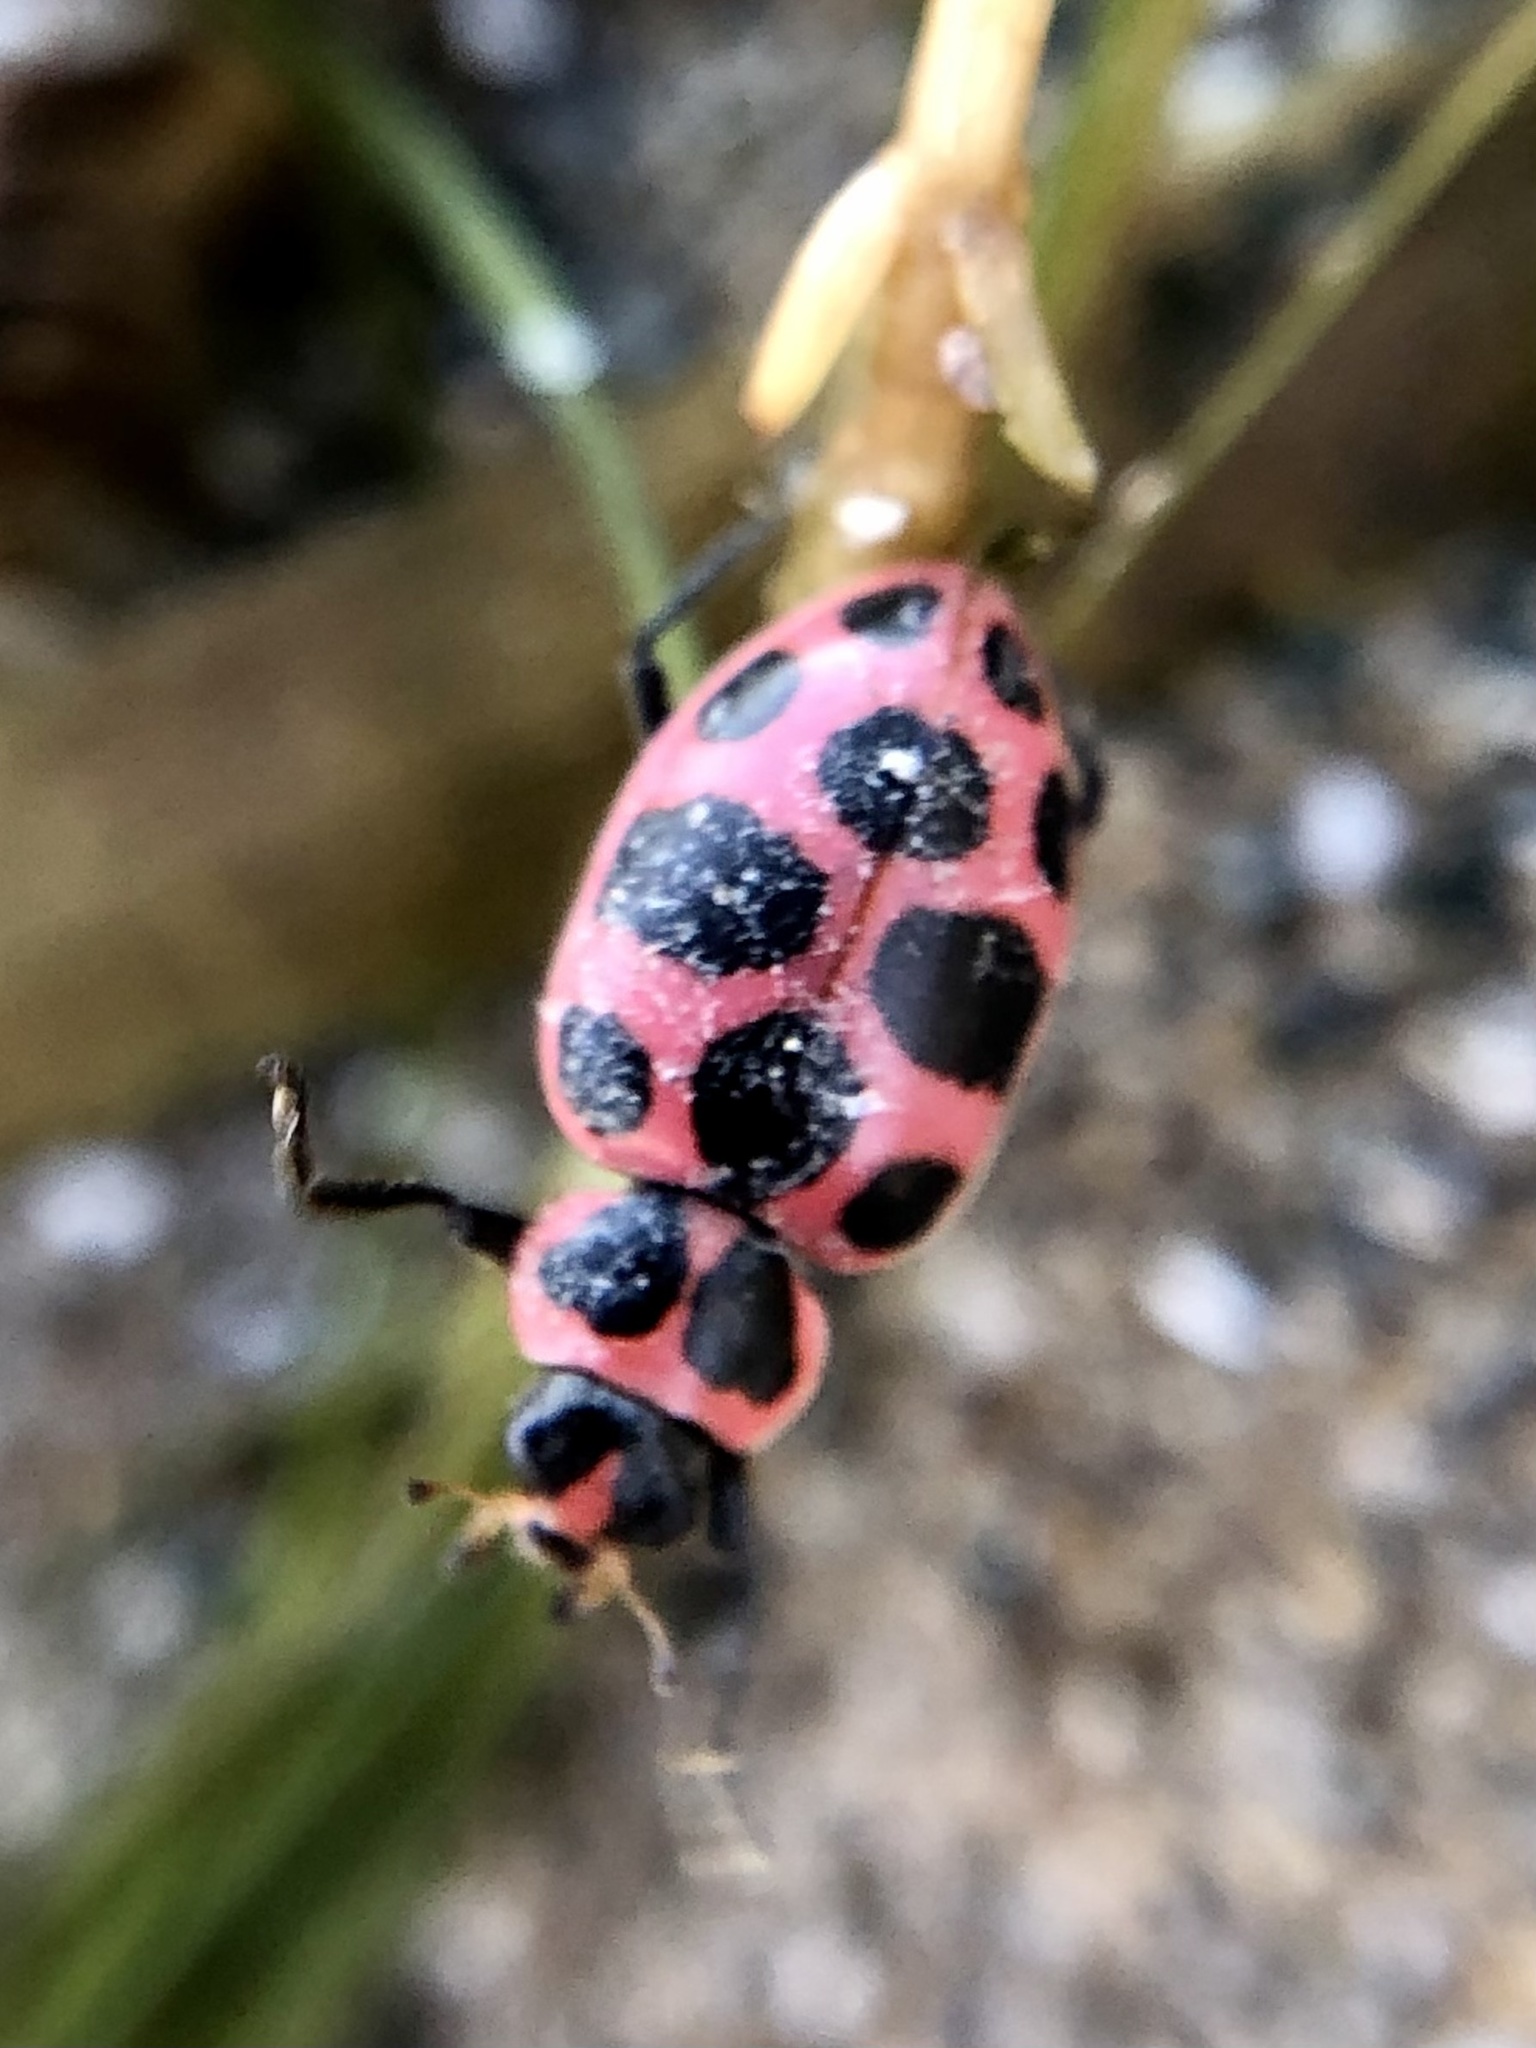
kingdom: Animalia
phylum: Arthropoda
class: Insecta
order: Coleoptera
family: Coccinellidae
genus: Coleomegilla
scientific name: Coleomegilla maculata
